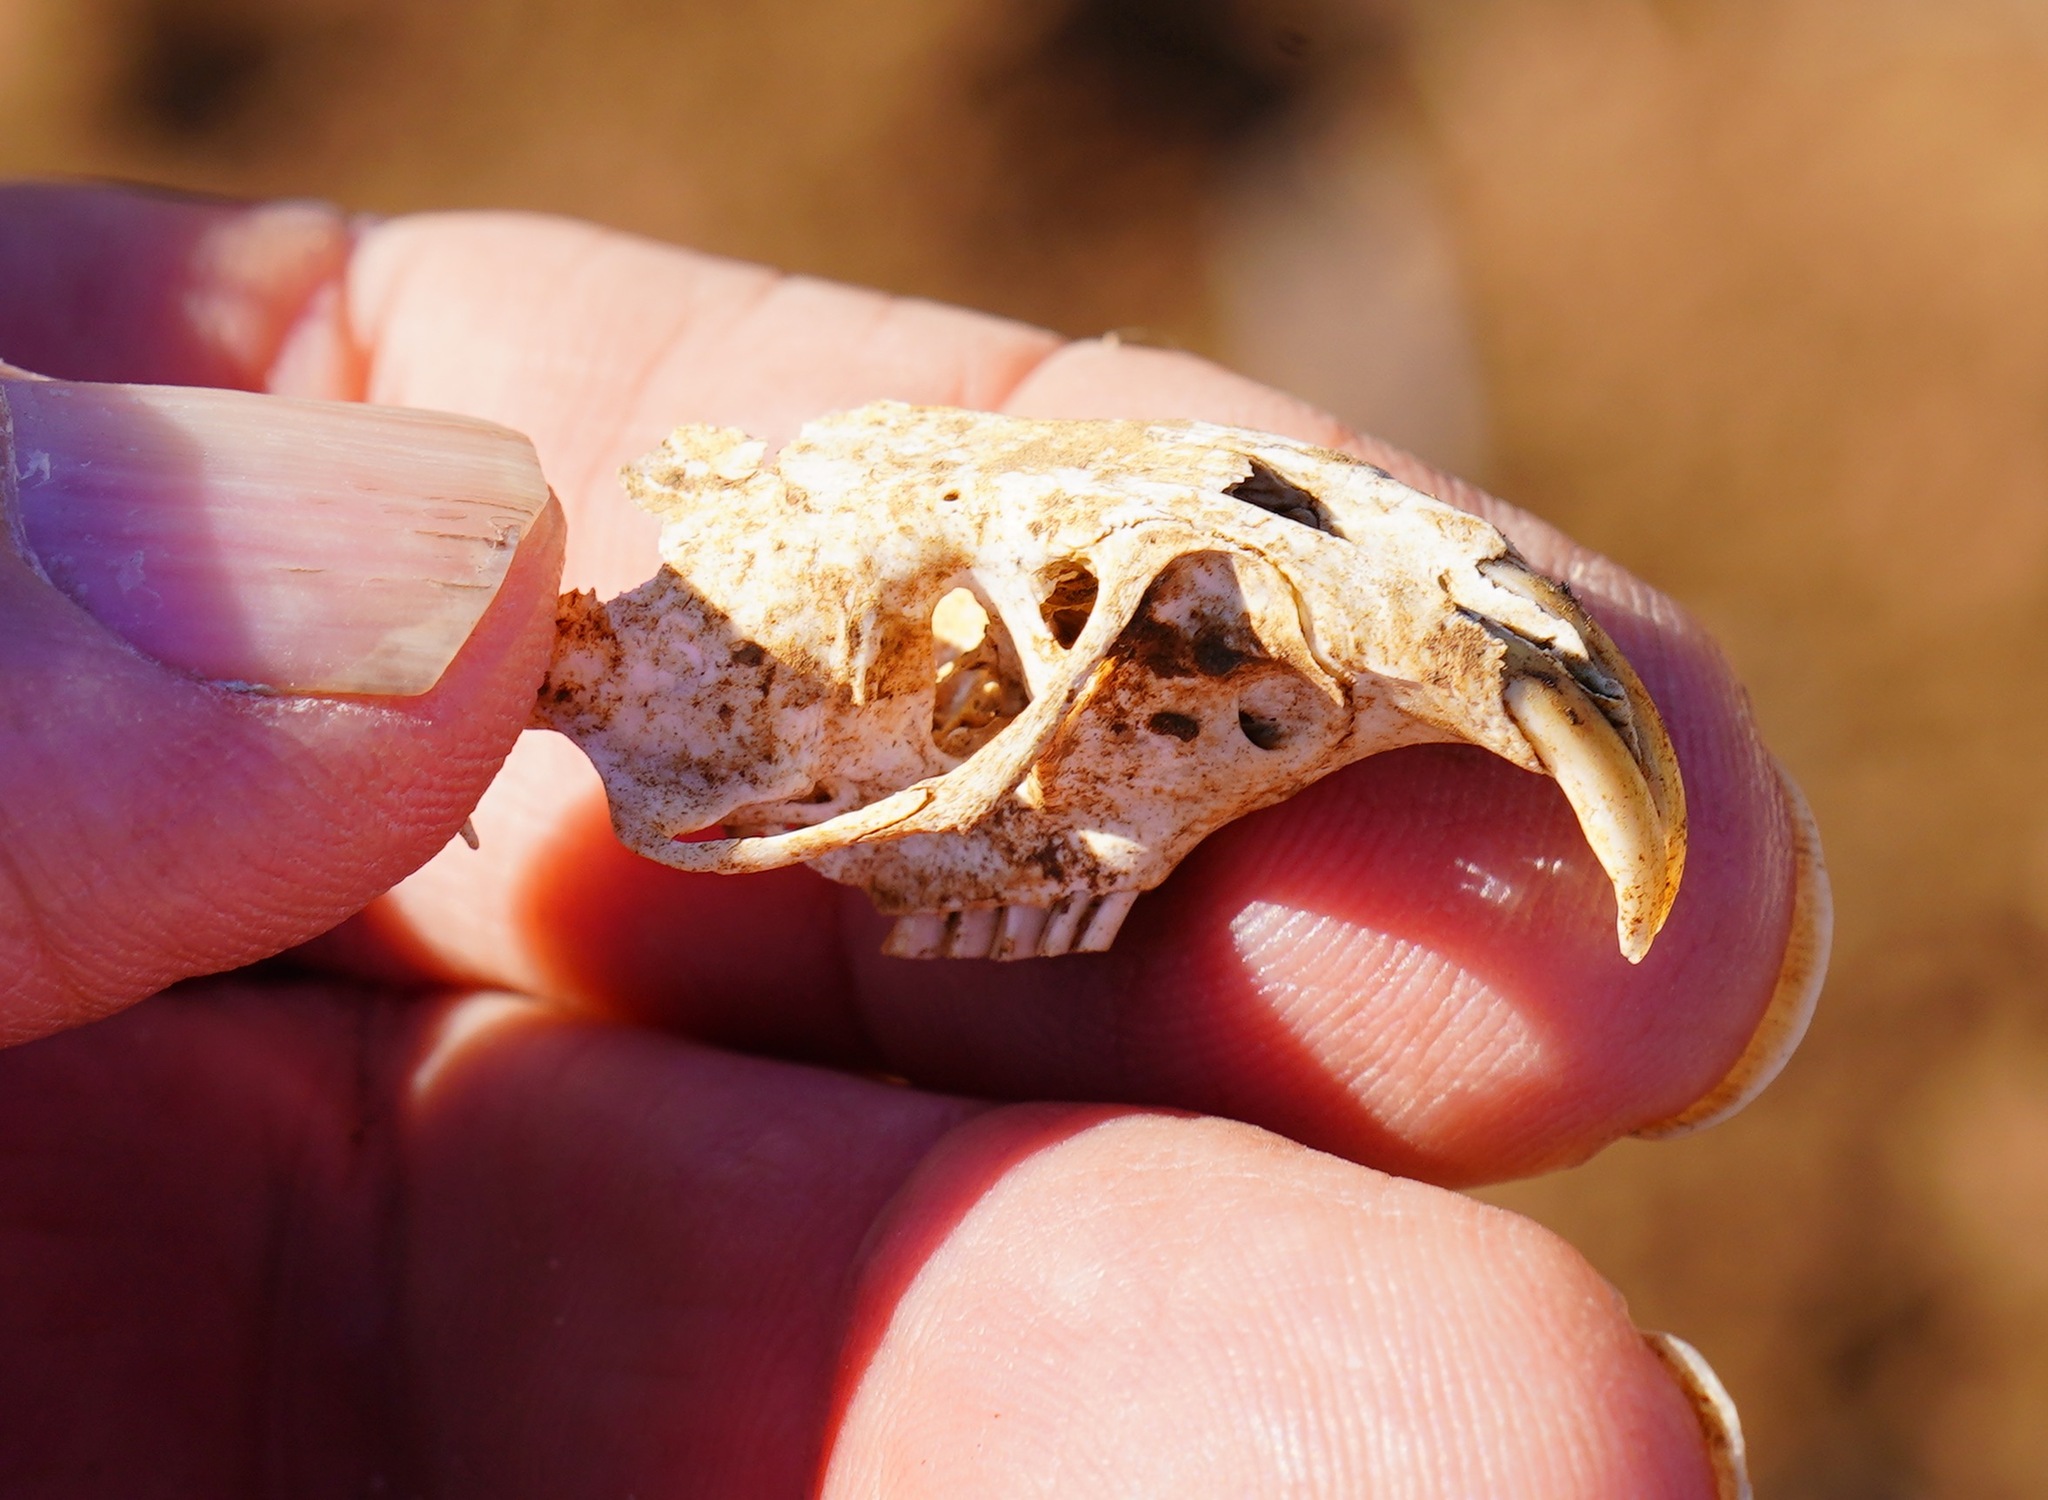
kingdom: Animalia
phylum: Chordata
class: Mammalia
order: Rodentia
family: Geomyidae
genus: Thomomys
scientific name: Thomomys bottae
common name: Botta's pocket gopher
